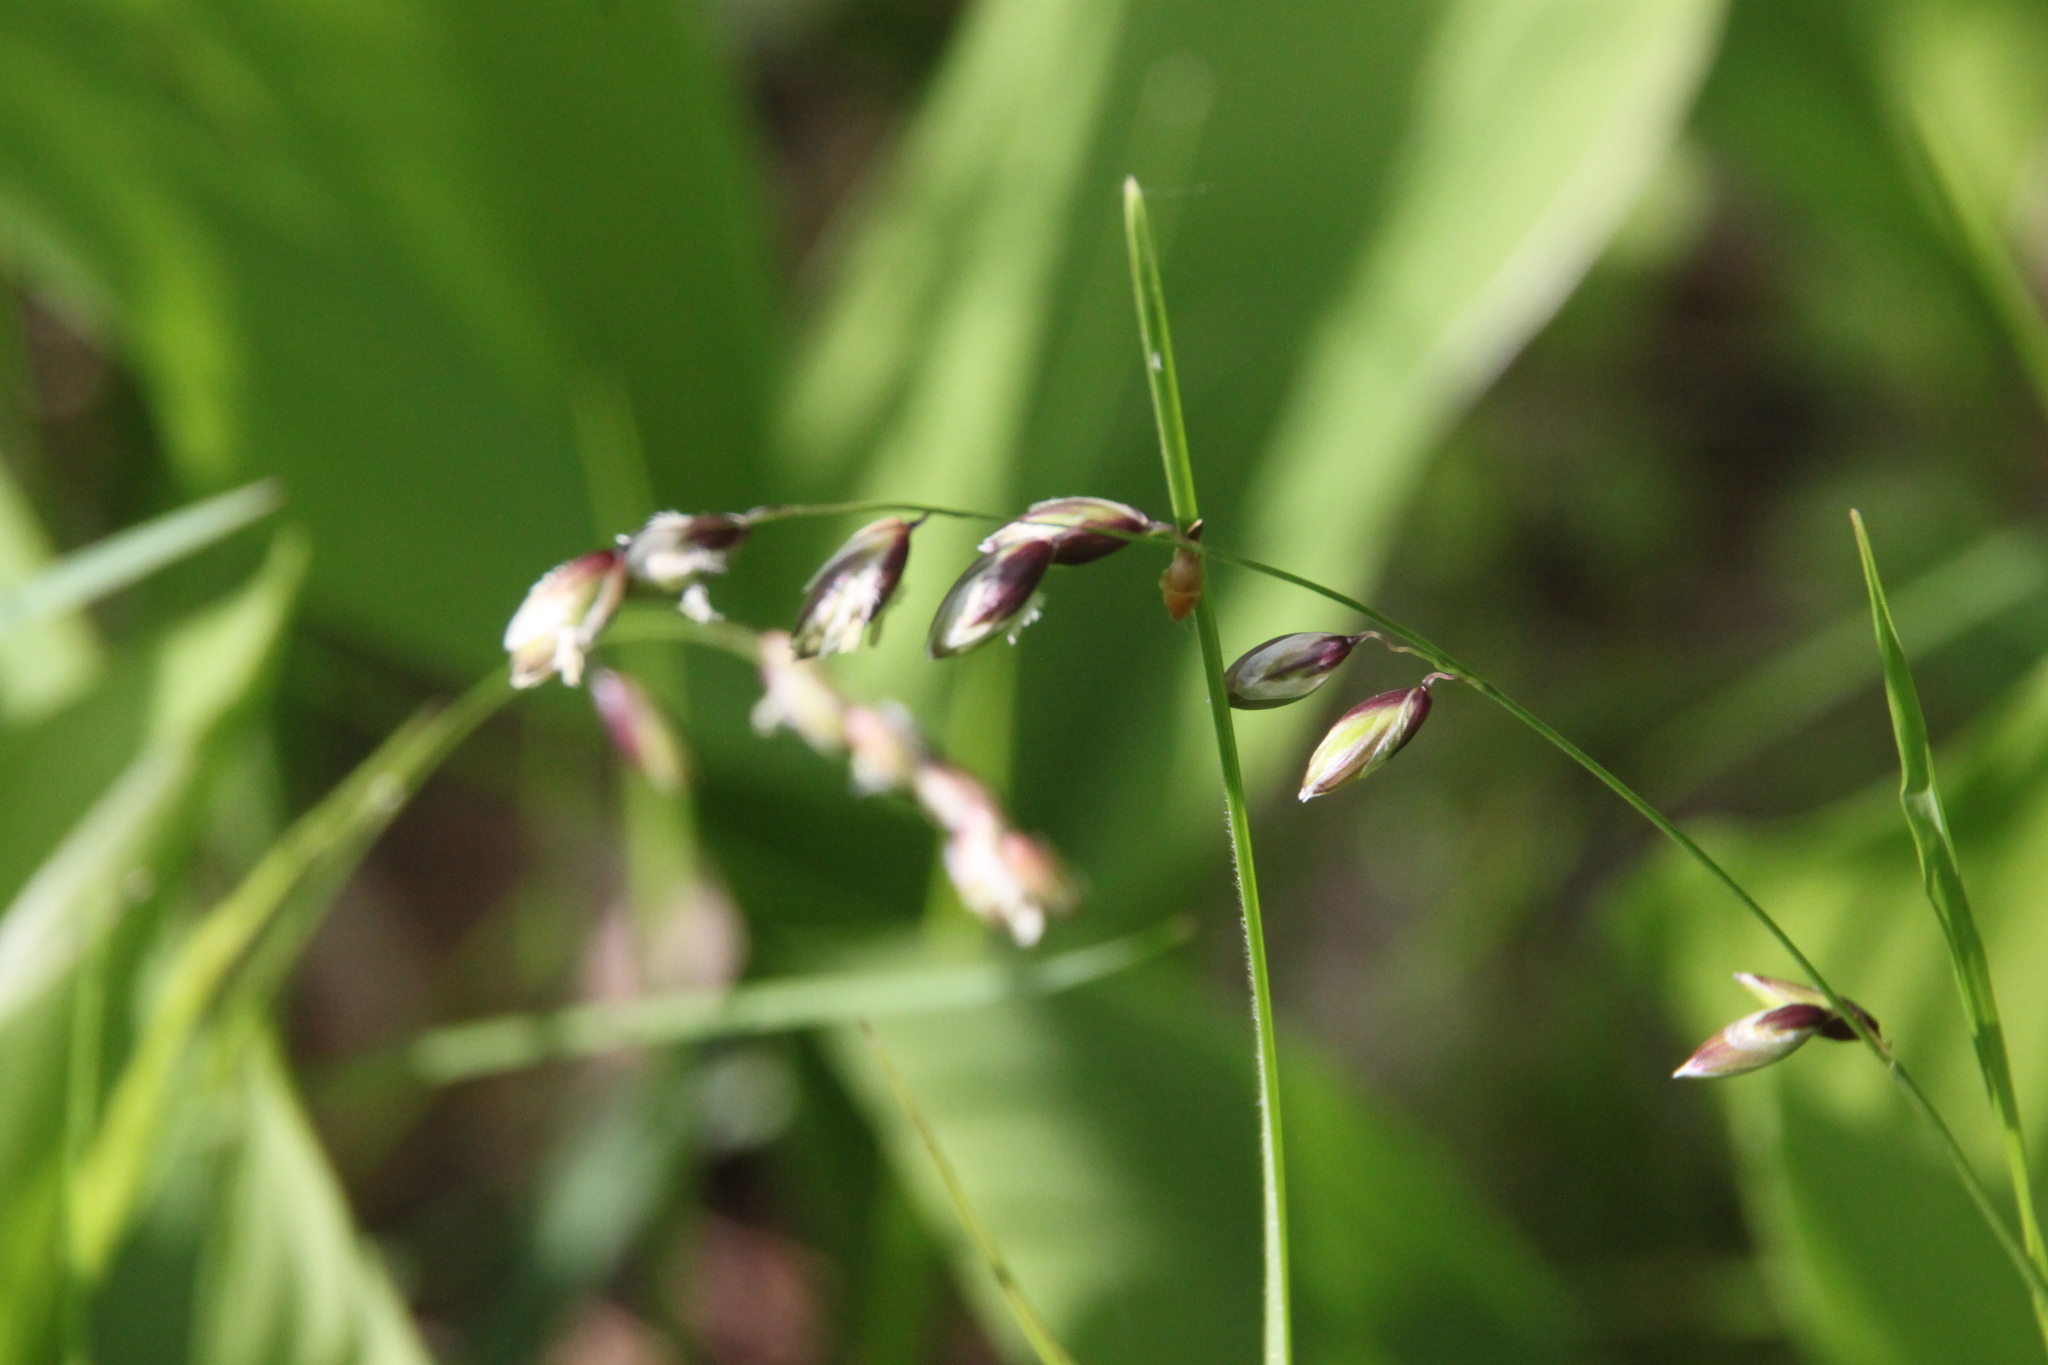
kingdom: Plantae
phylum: Tracheophyta
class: Liliopsida
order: Poales
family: Poaceae
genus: Melica
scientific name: Melica nutans
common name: Mountain melick
